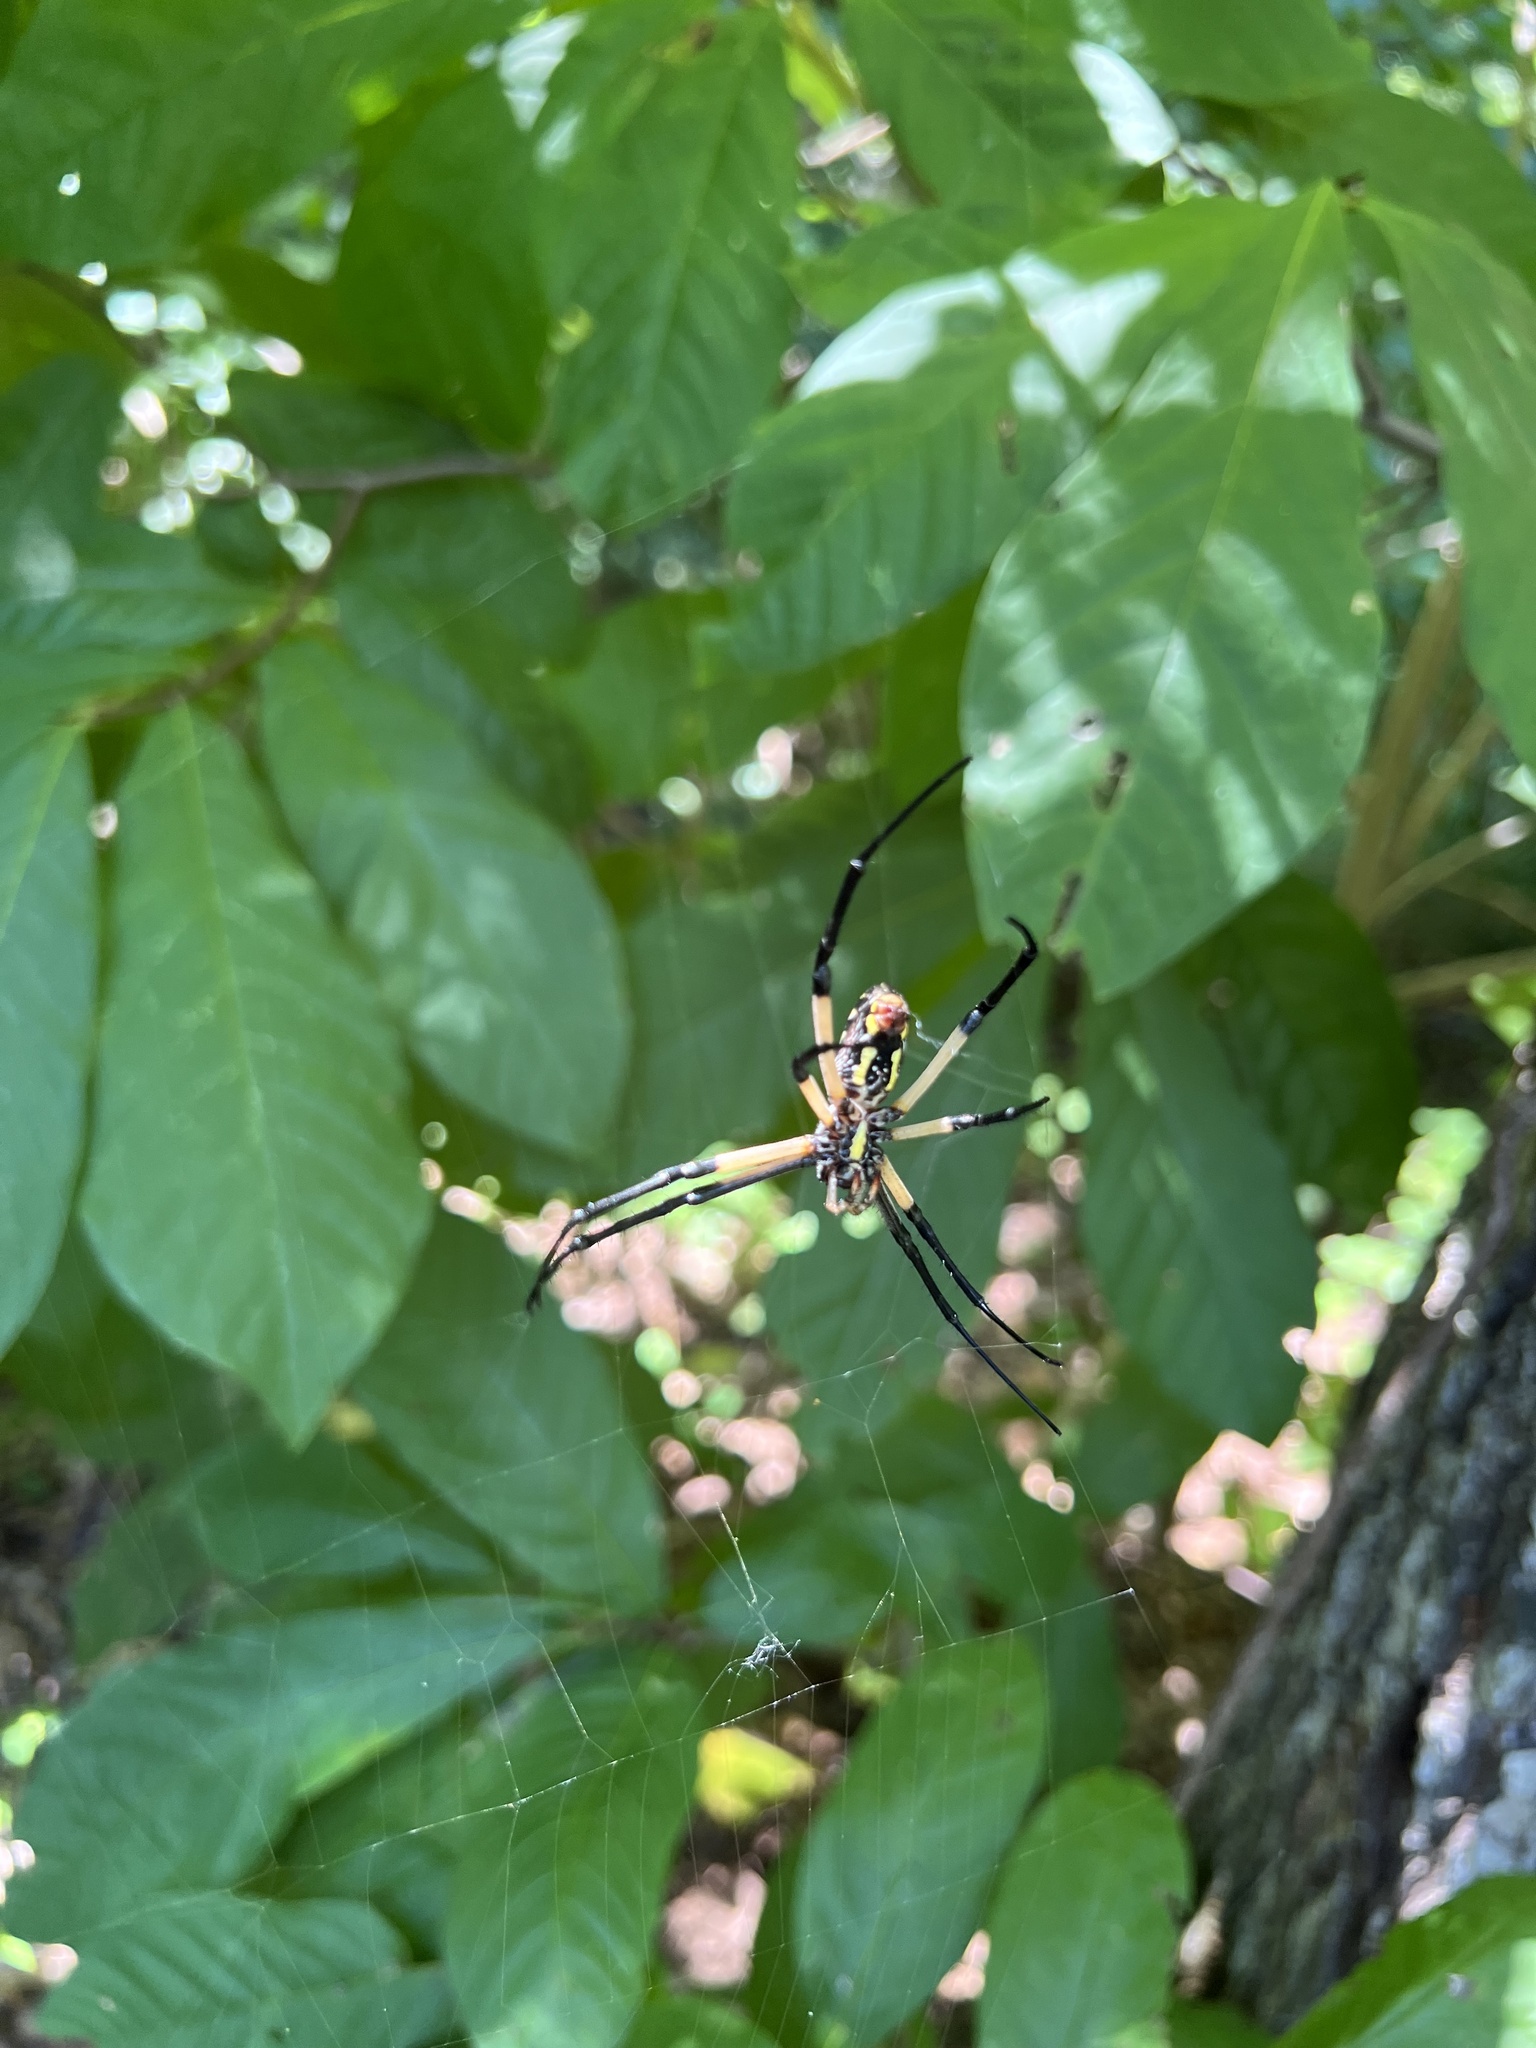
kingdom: Animalia
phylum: Arthropoda
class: Arachnida
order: Araneae
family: Araneidae
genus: Argiope
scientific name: Argiope aurantia
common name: Orb weavers
